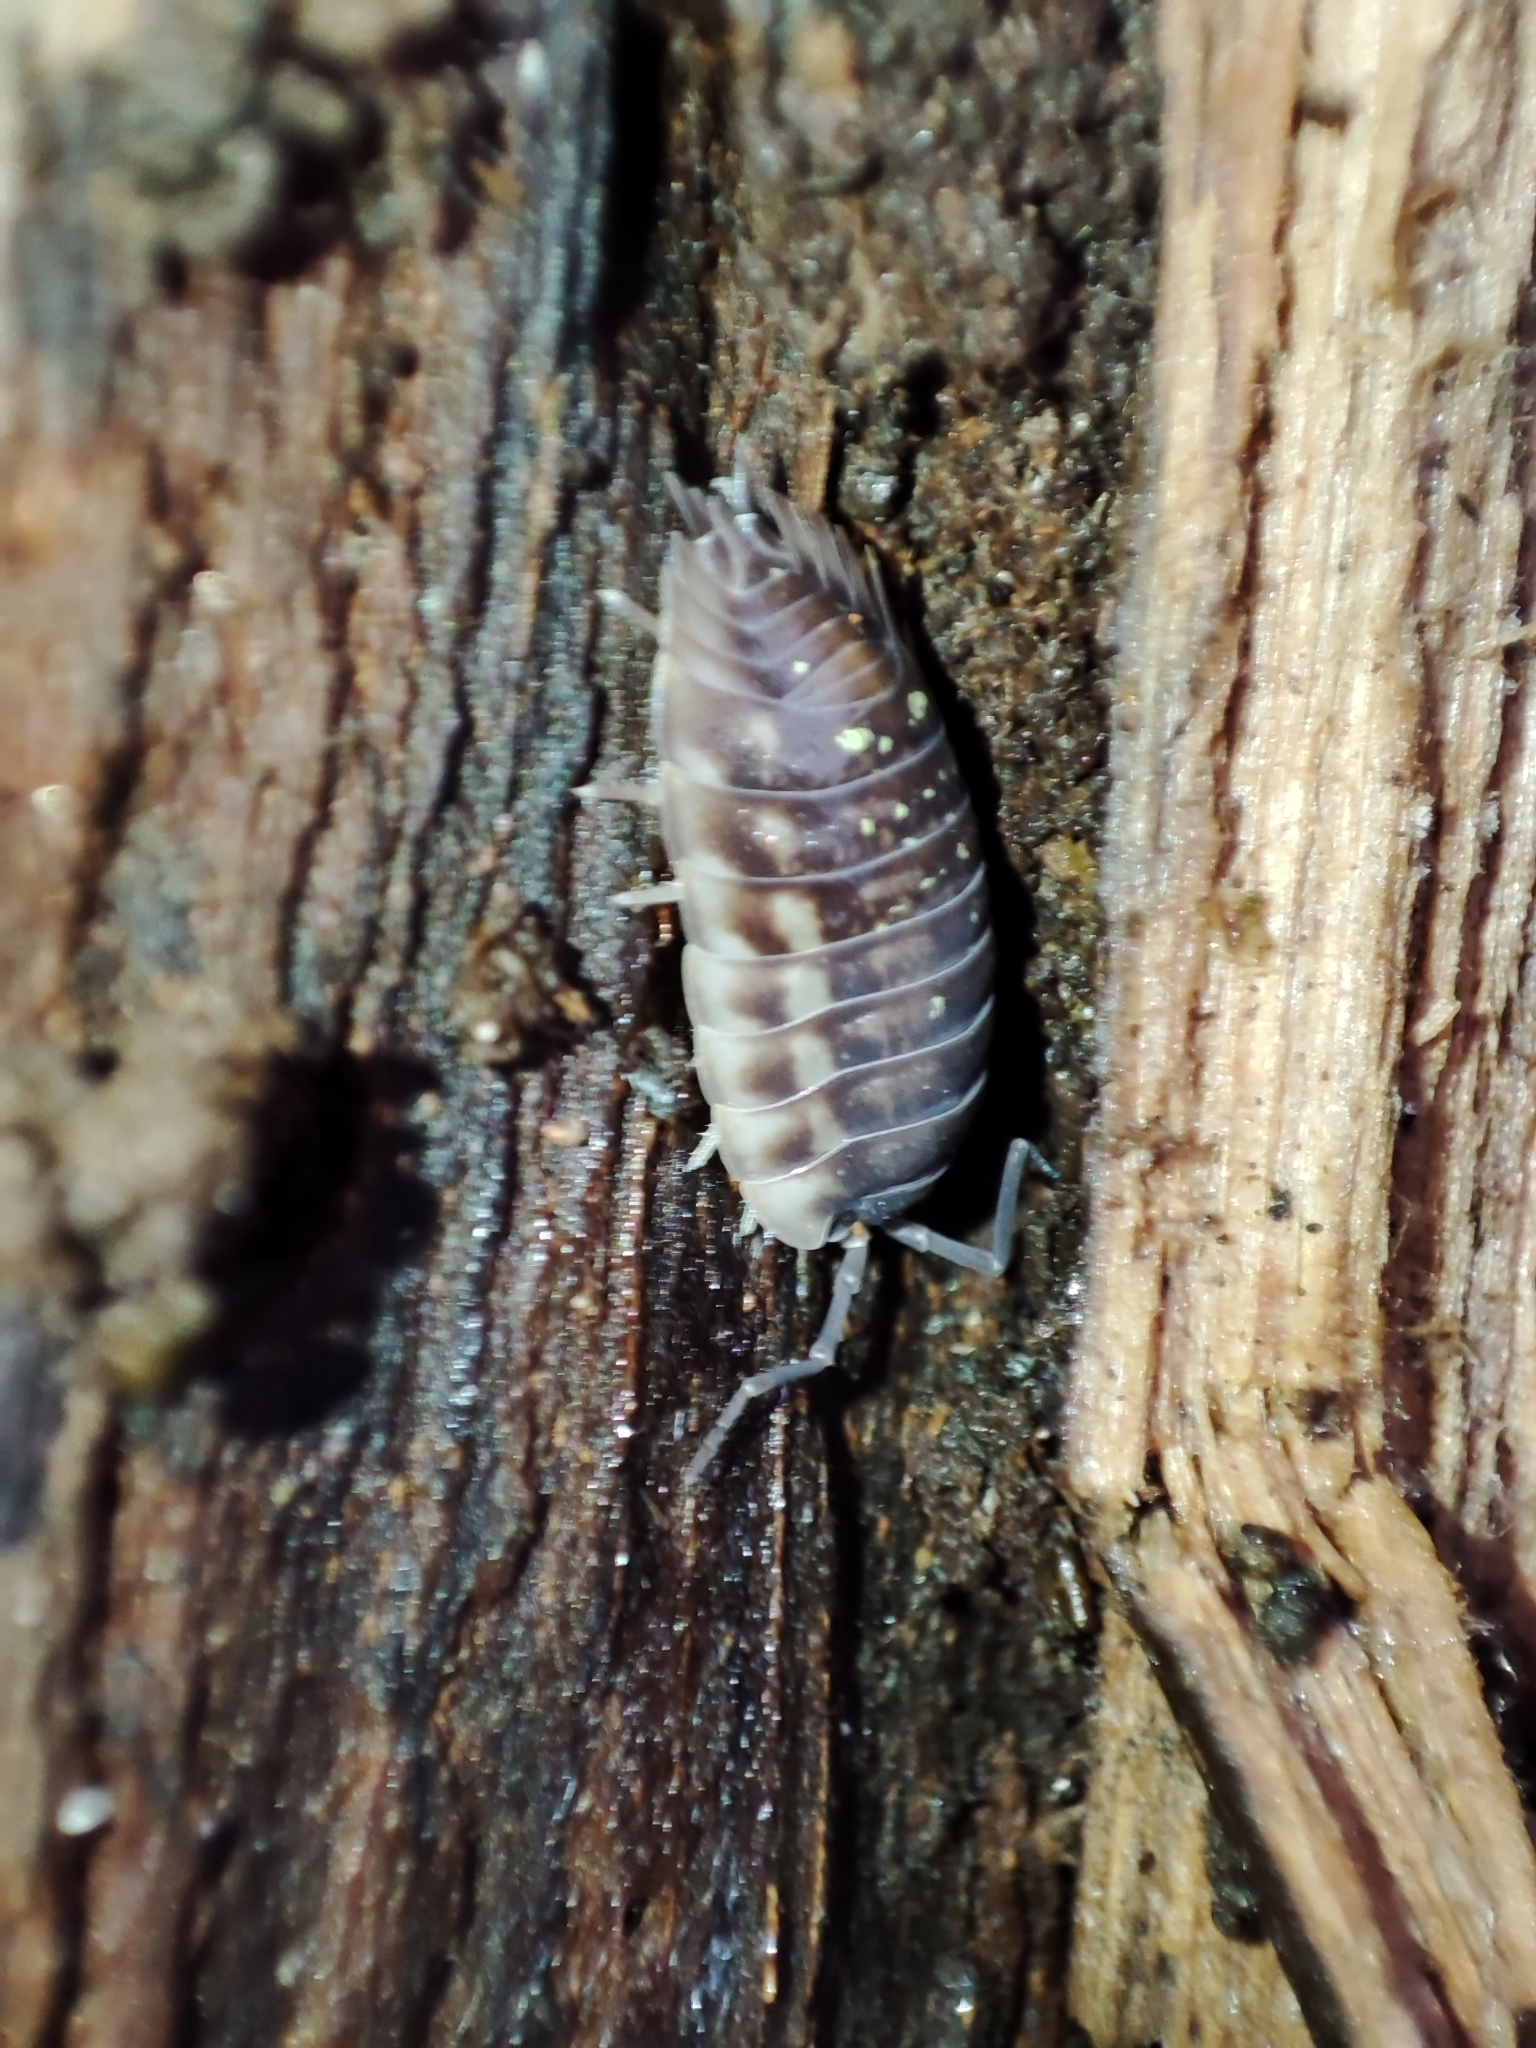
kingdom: Animalia
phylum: Arthropoda
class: Malacostraca
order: Isopoda
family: Oniscidae
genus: Oniscus
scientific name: Oniscus asellus
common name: Common shiny woodlouse
